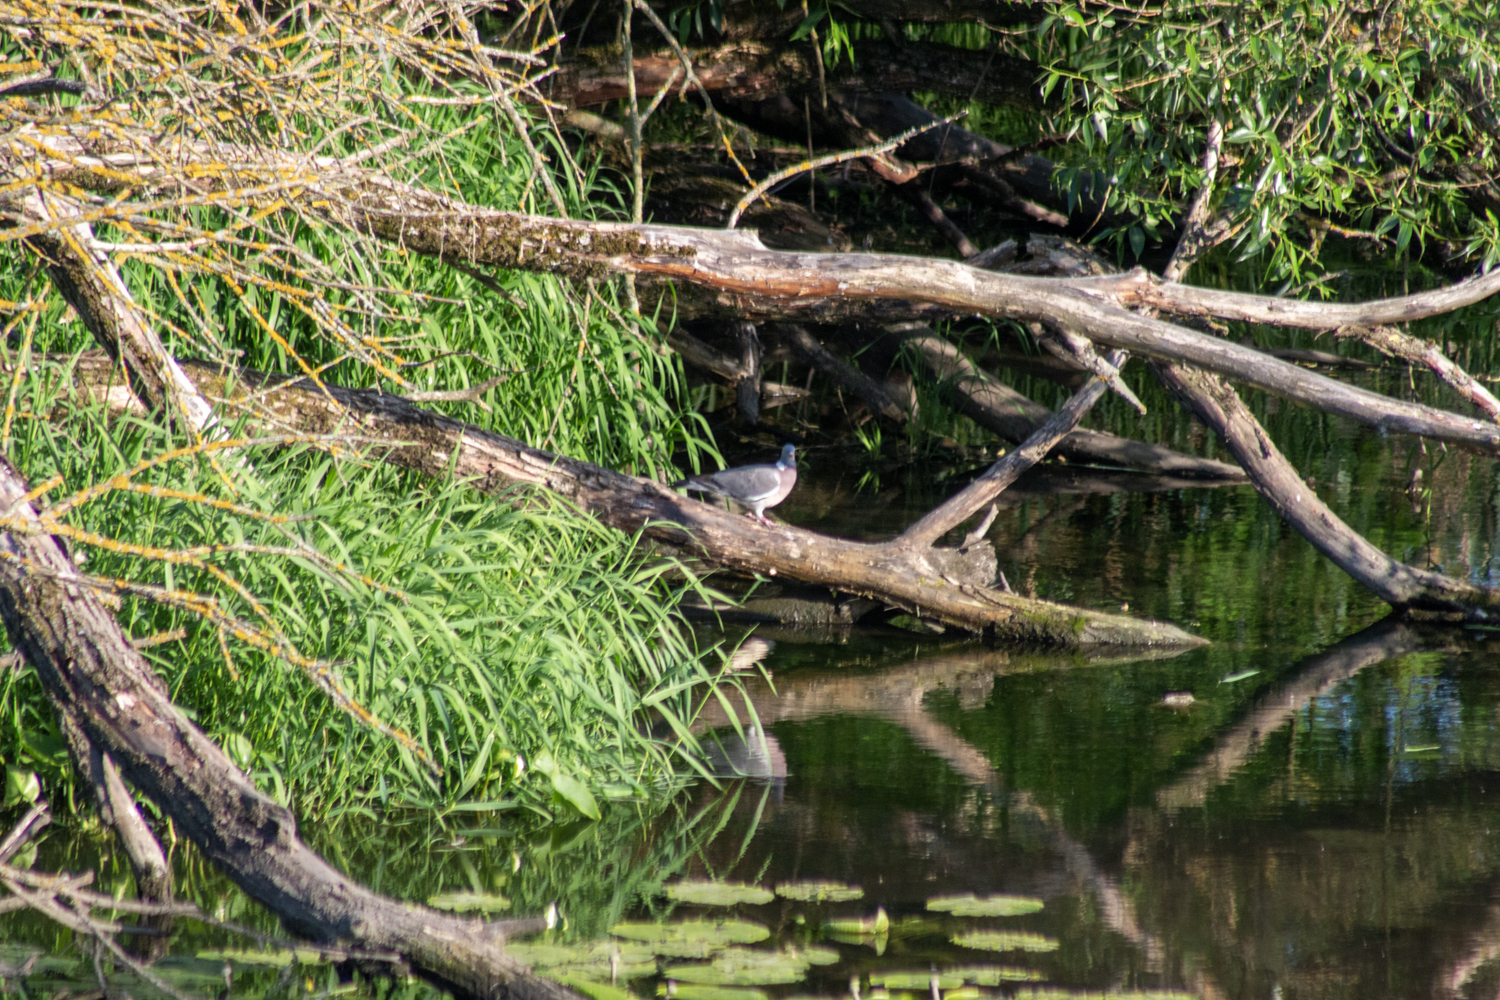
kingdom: Animalia
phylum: Chordata
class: Aves
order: Columbiformes
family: Columbidae
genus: Columba
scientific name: Columba palumbus
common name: Common wood pigeon
